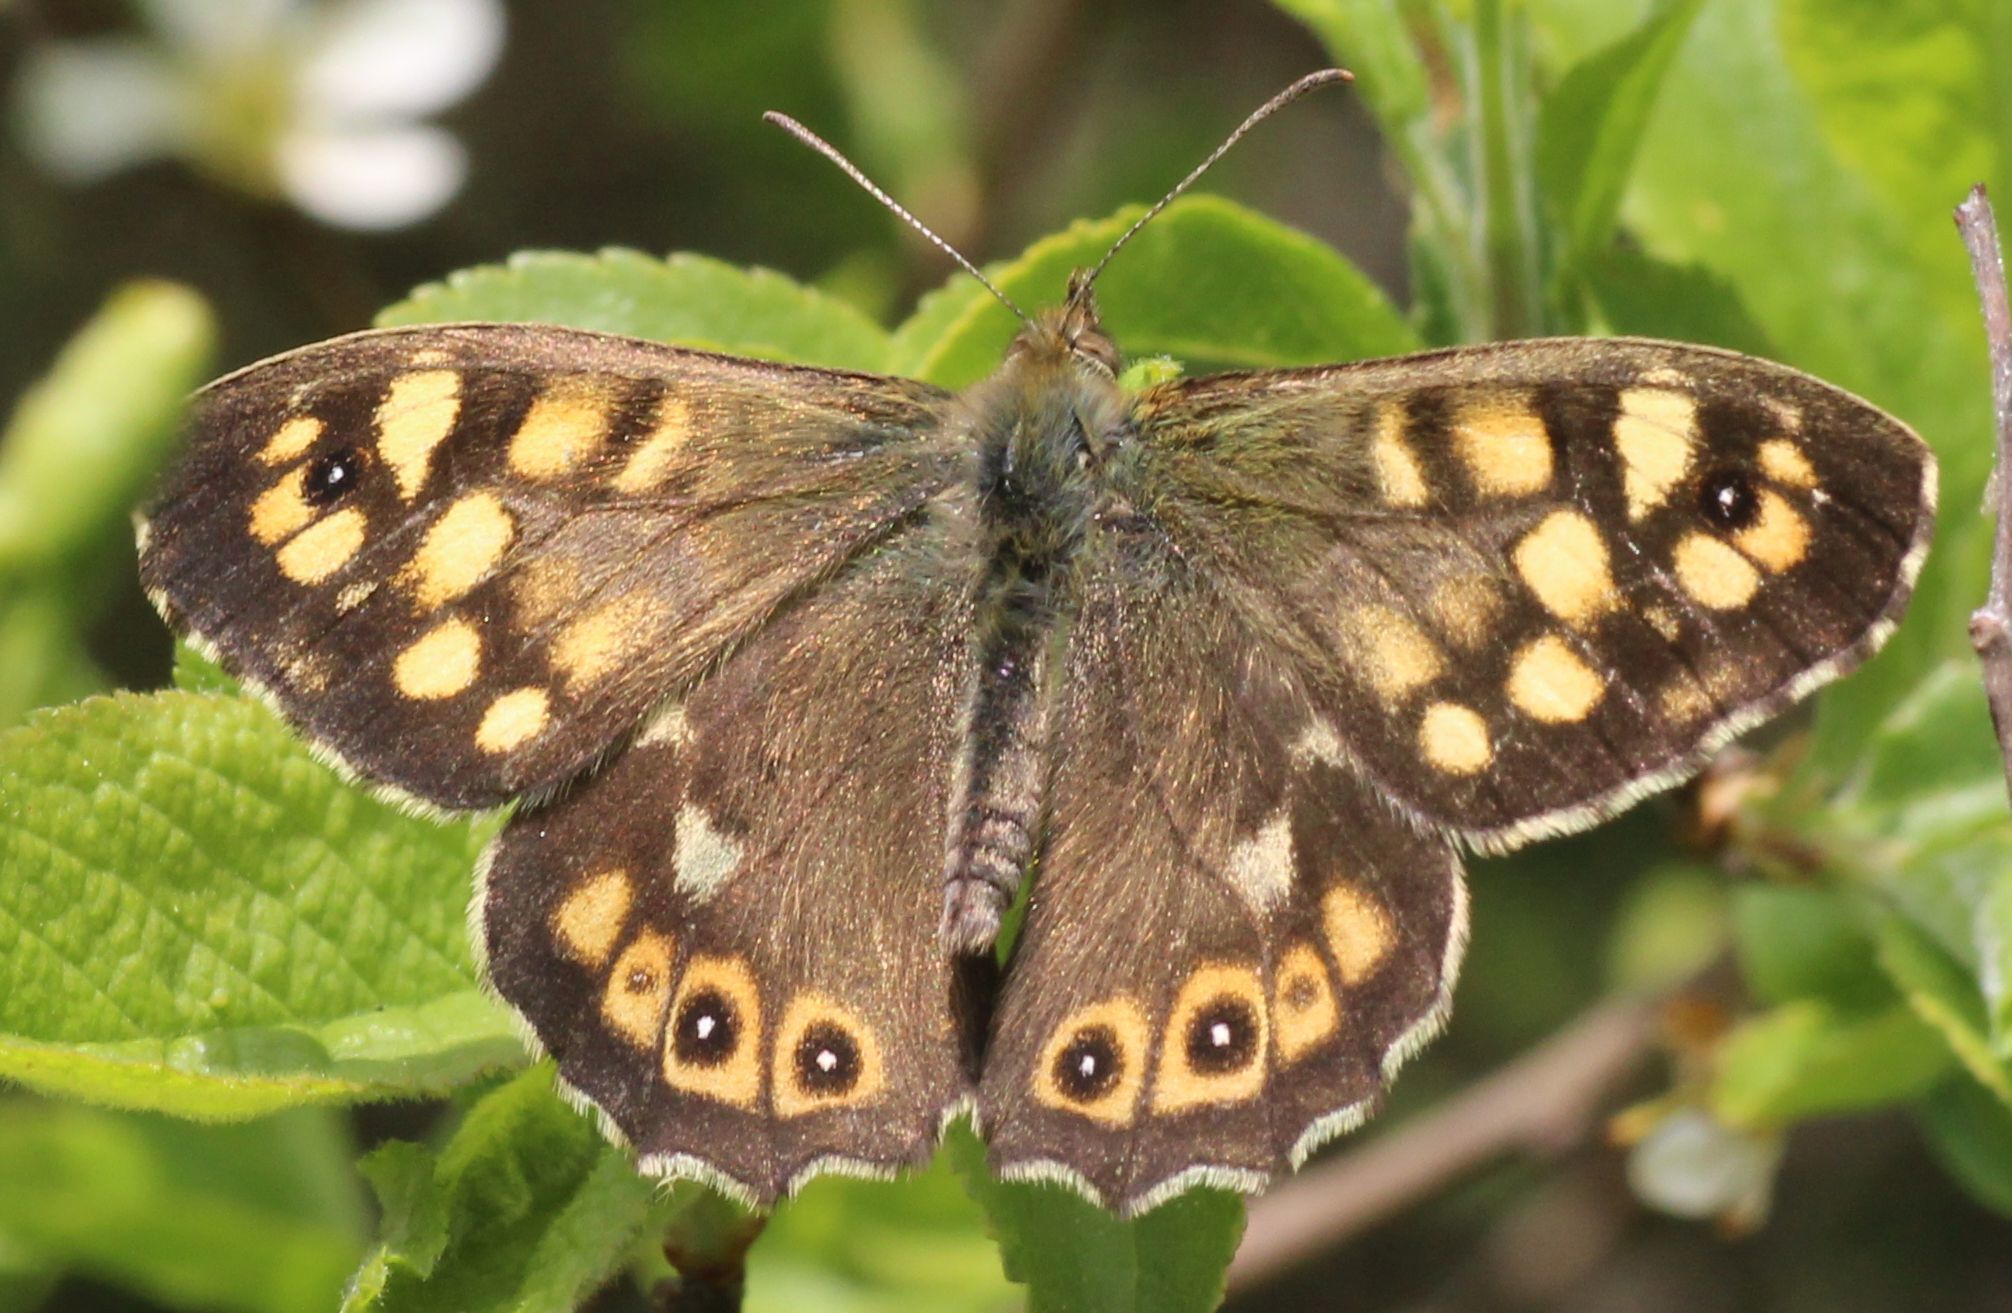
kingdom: Animalia
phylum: Arthropoda
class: Insecta
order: Lepidoptera
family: Nymphalidae
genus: Pararge
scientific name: Pararge aegeria
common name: Speckled wood
